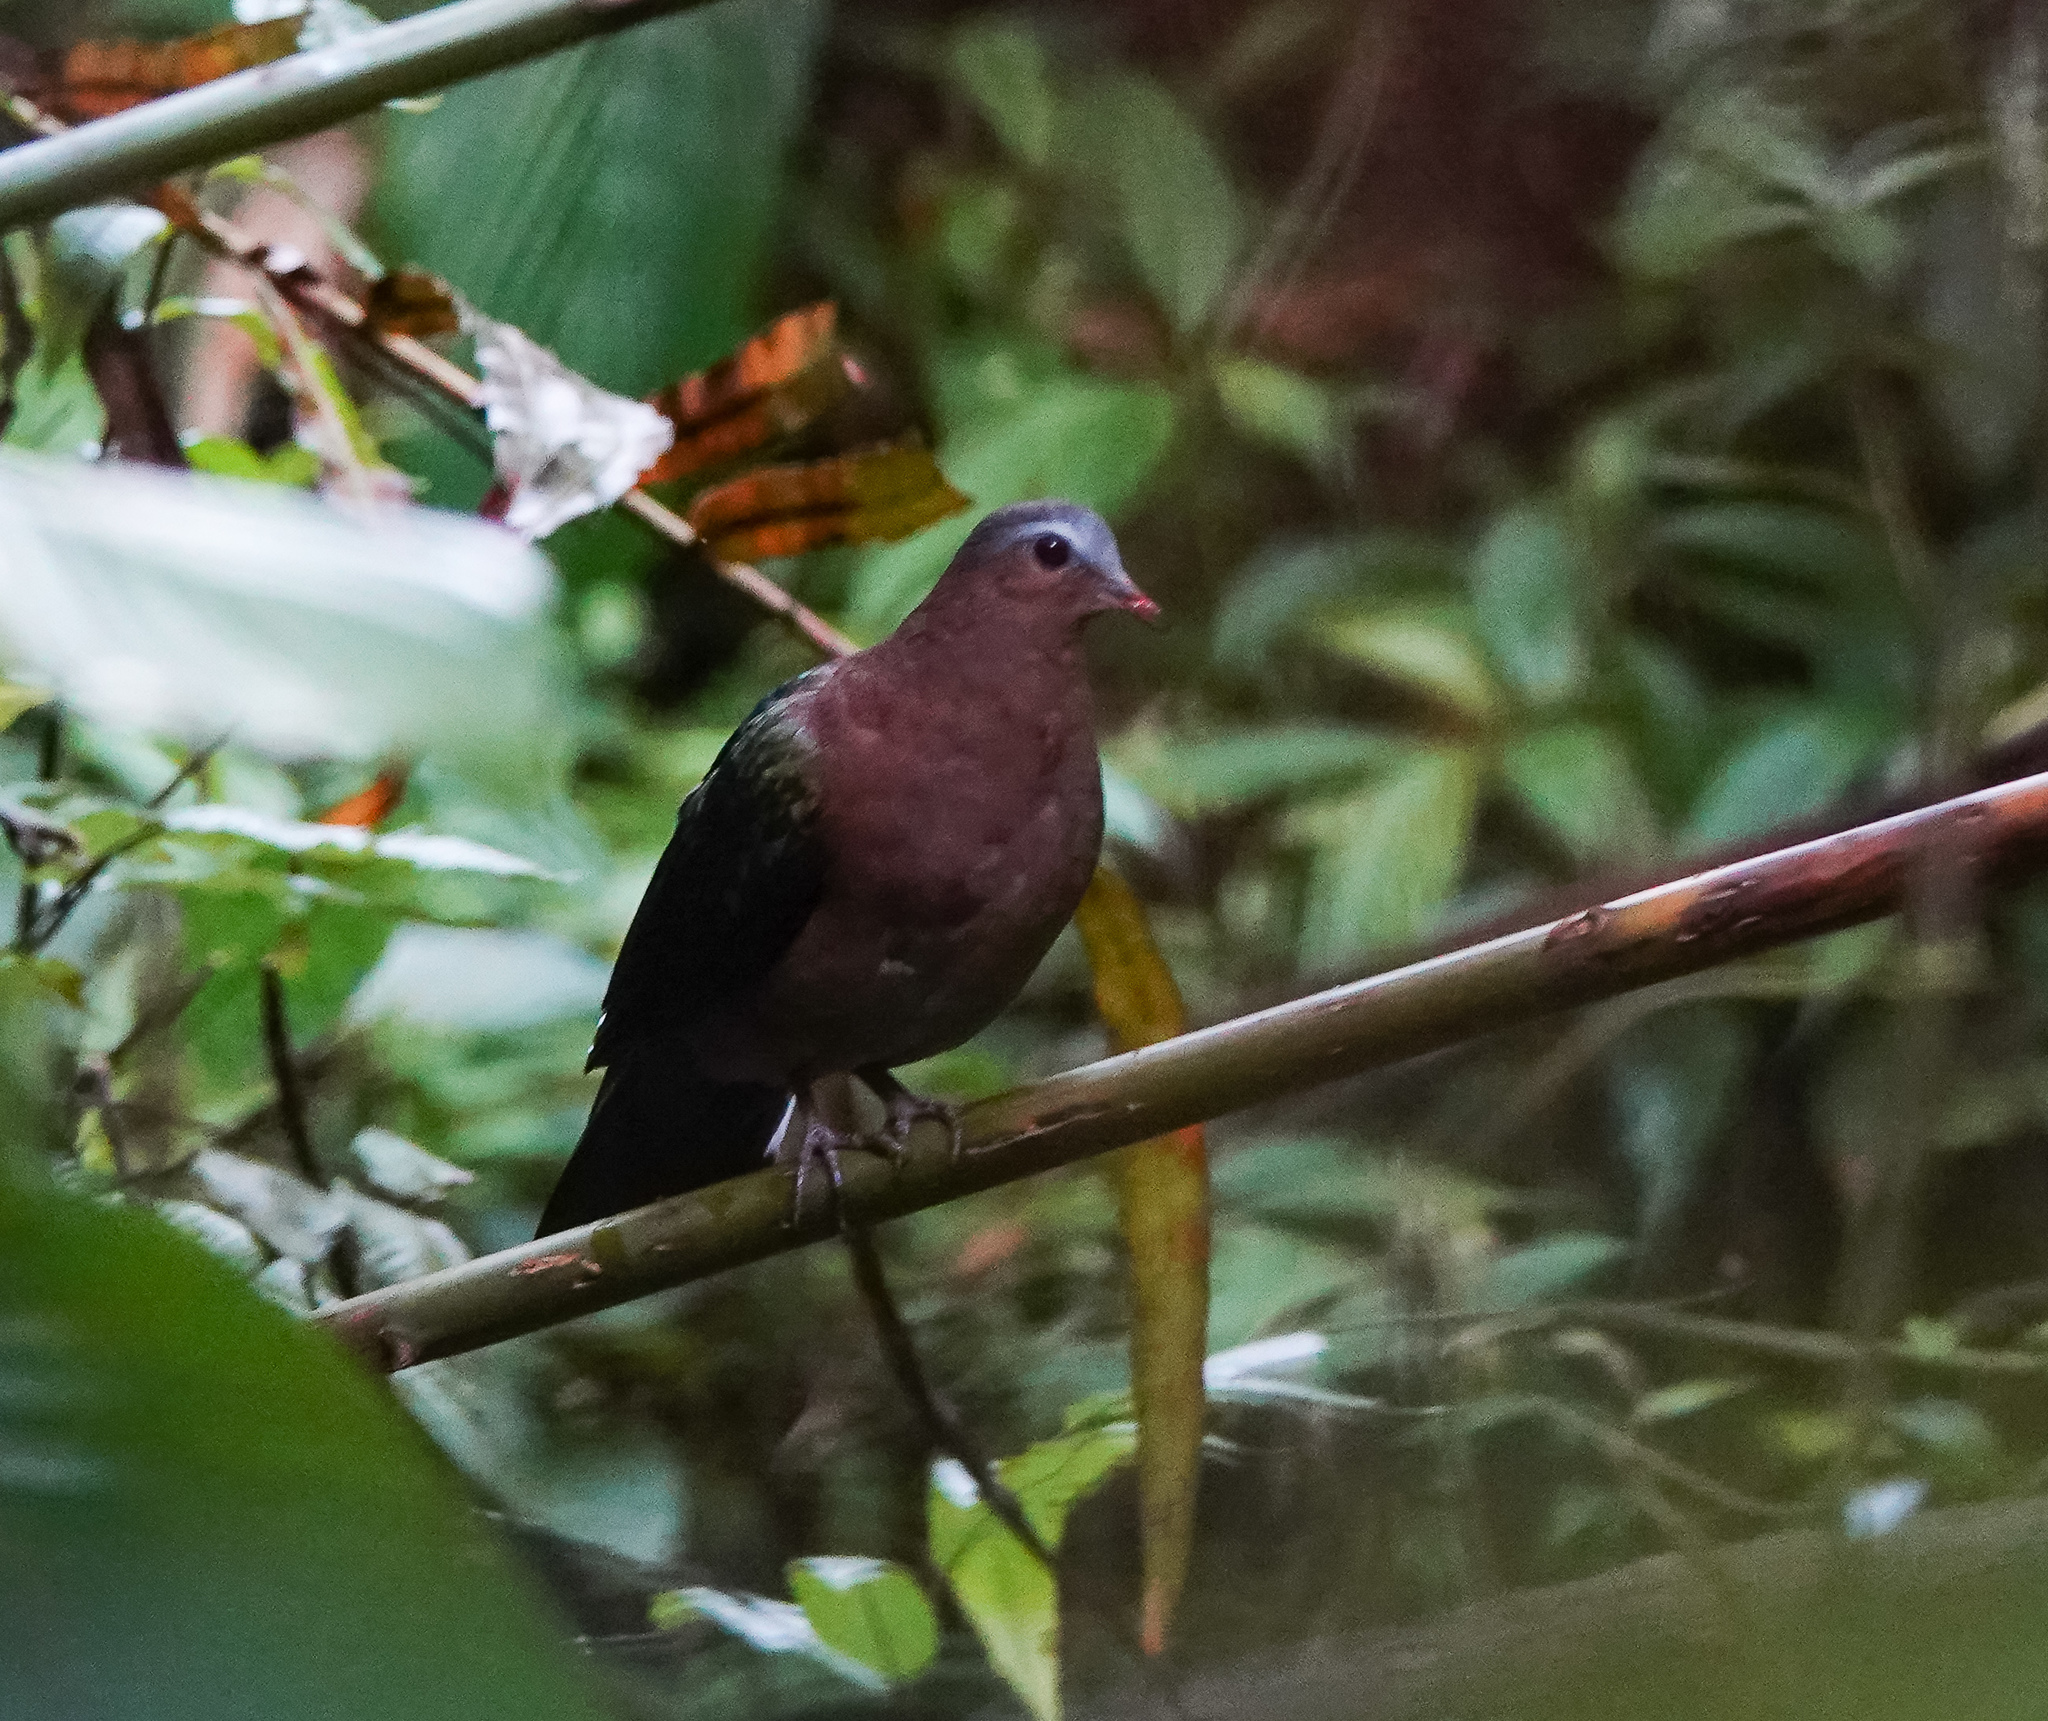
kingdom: Animalia
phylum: Chordata
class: Aves
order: Columbiformes
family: Columbidae
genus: Chalcophaps
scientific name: Chalcophaps indica
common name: Common emerald dove
